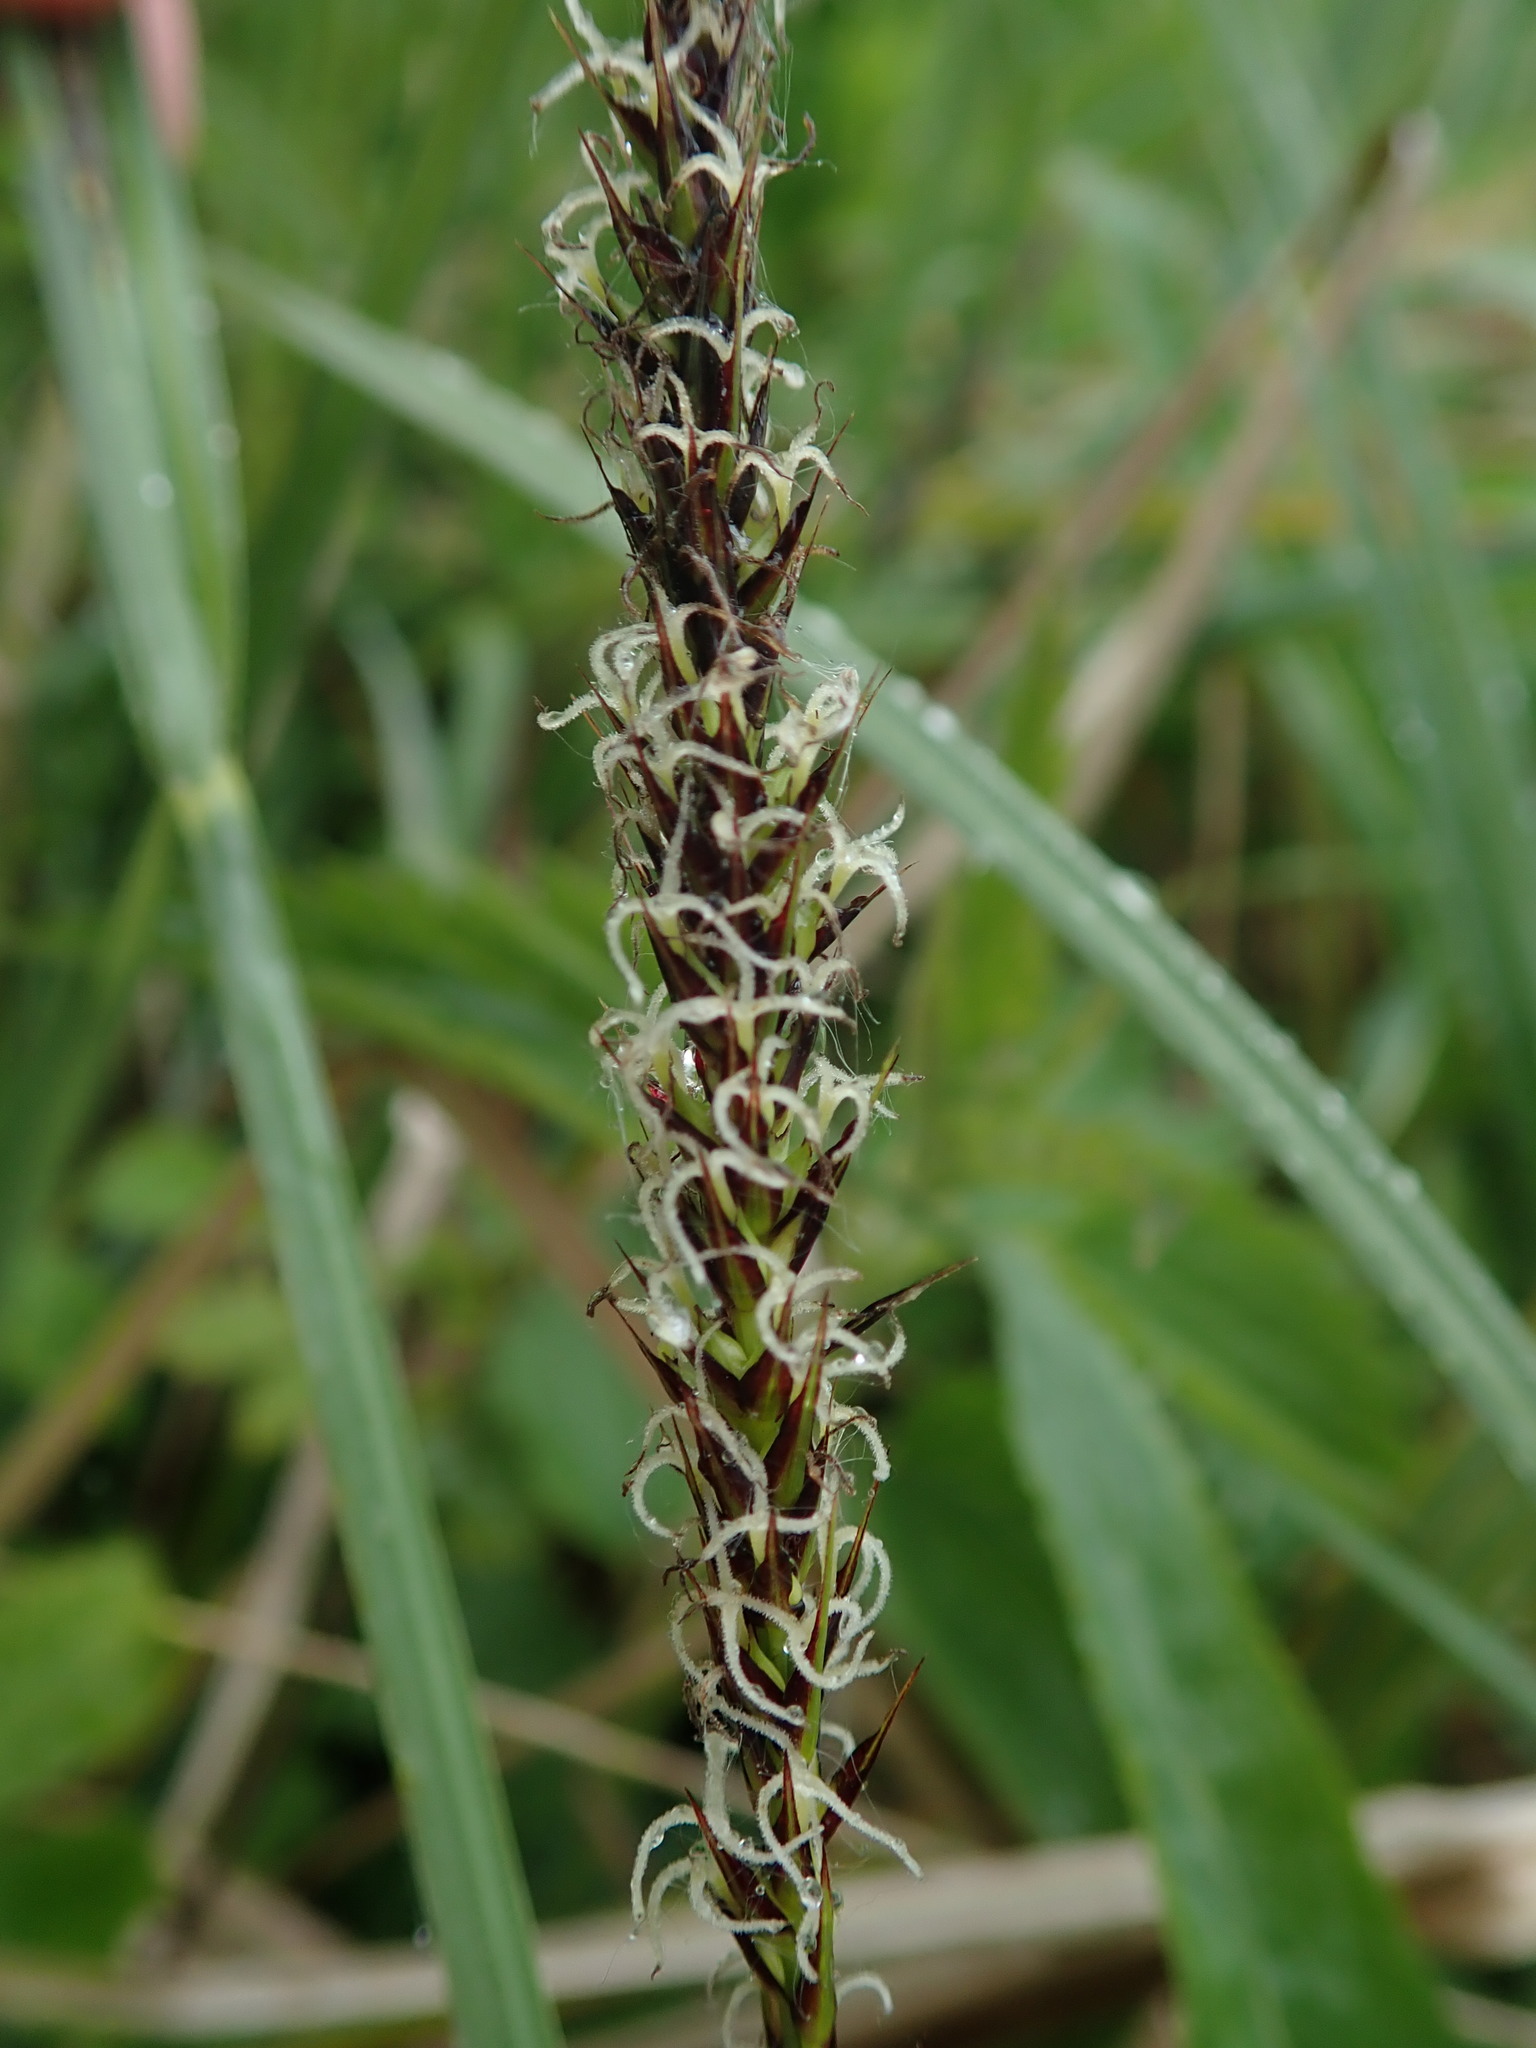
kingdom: Plantae
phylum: Tracheophyta
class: Liliopsida
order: Poales
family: Cyperaceae
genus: Carex
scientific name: Carex riparia
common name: Greater pond-sedge
